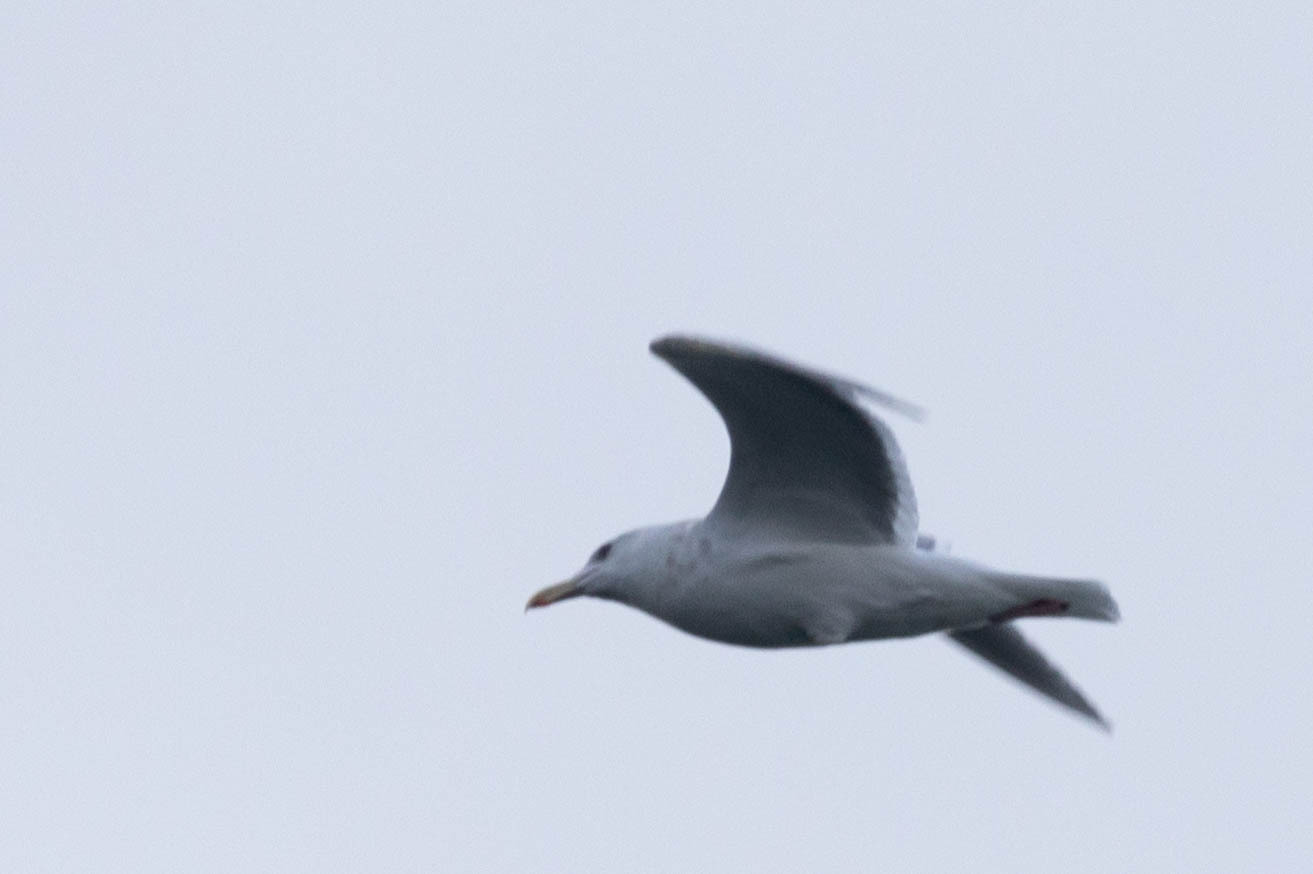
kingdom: Animalia
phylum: Chordata
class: Aves
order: Charadriiformes
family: Laridae
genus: Larus
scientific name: Larus glaucoides
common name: Iceland gull
